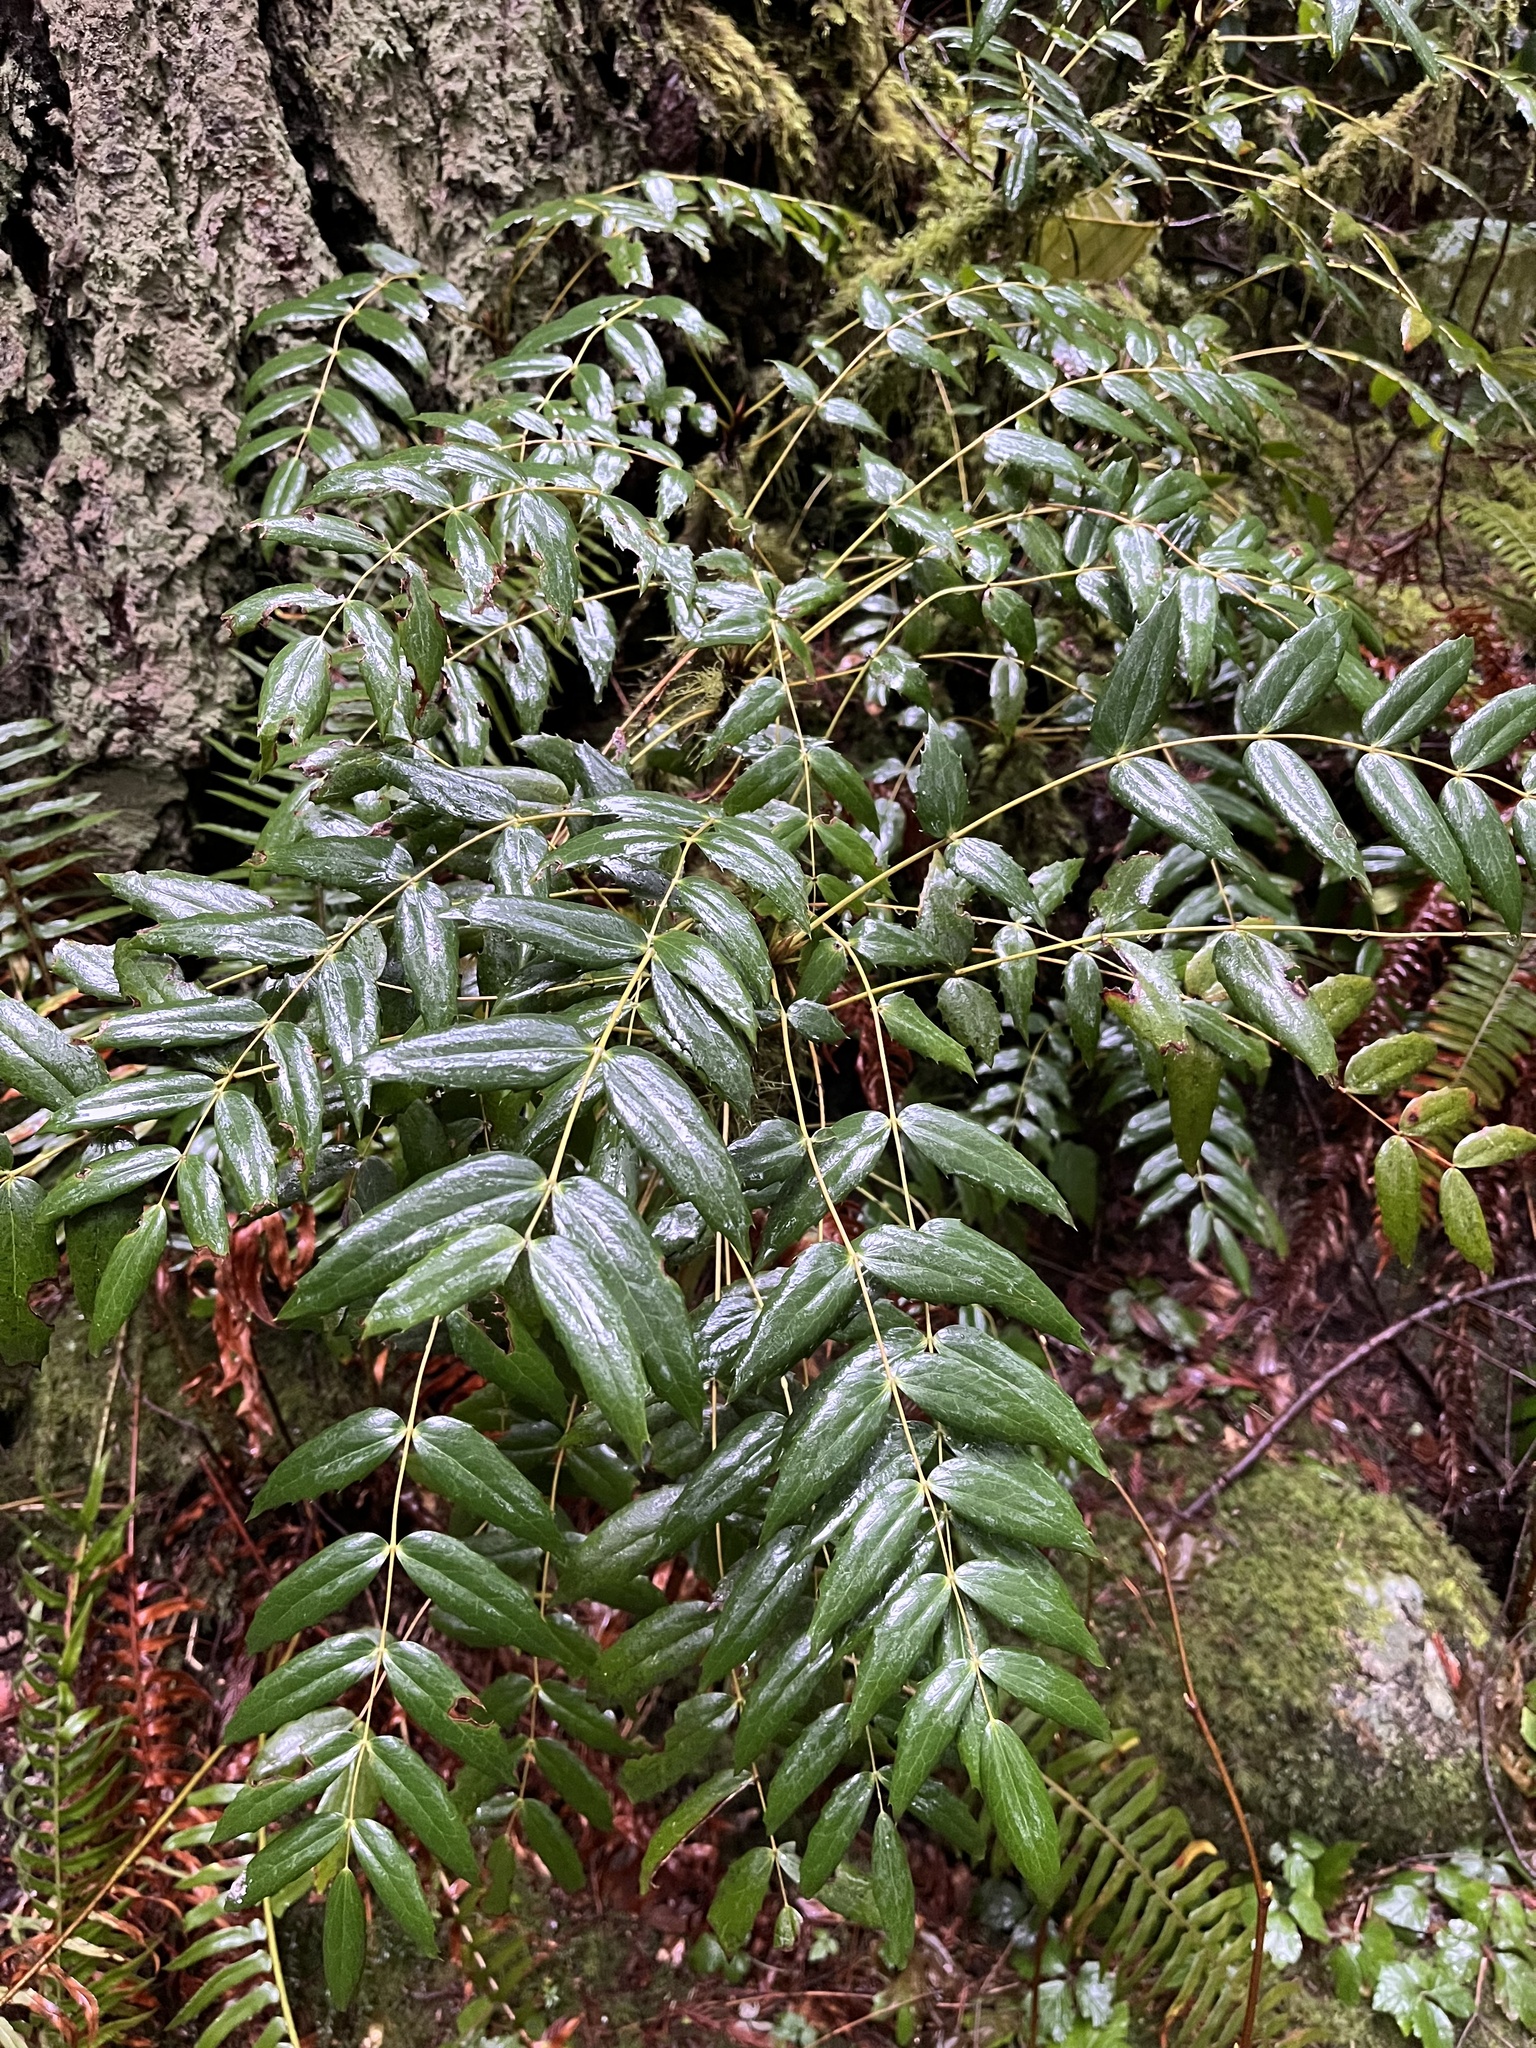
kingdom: Plantae
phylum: Tracheophyta
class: Magnoliopsida
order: Ranunculales
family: Berberidaceae
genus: Mahonia
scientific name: Mahonia nervosa
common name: Cascade oregon-grape
